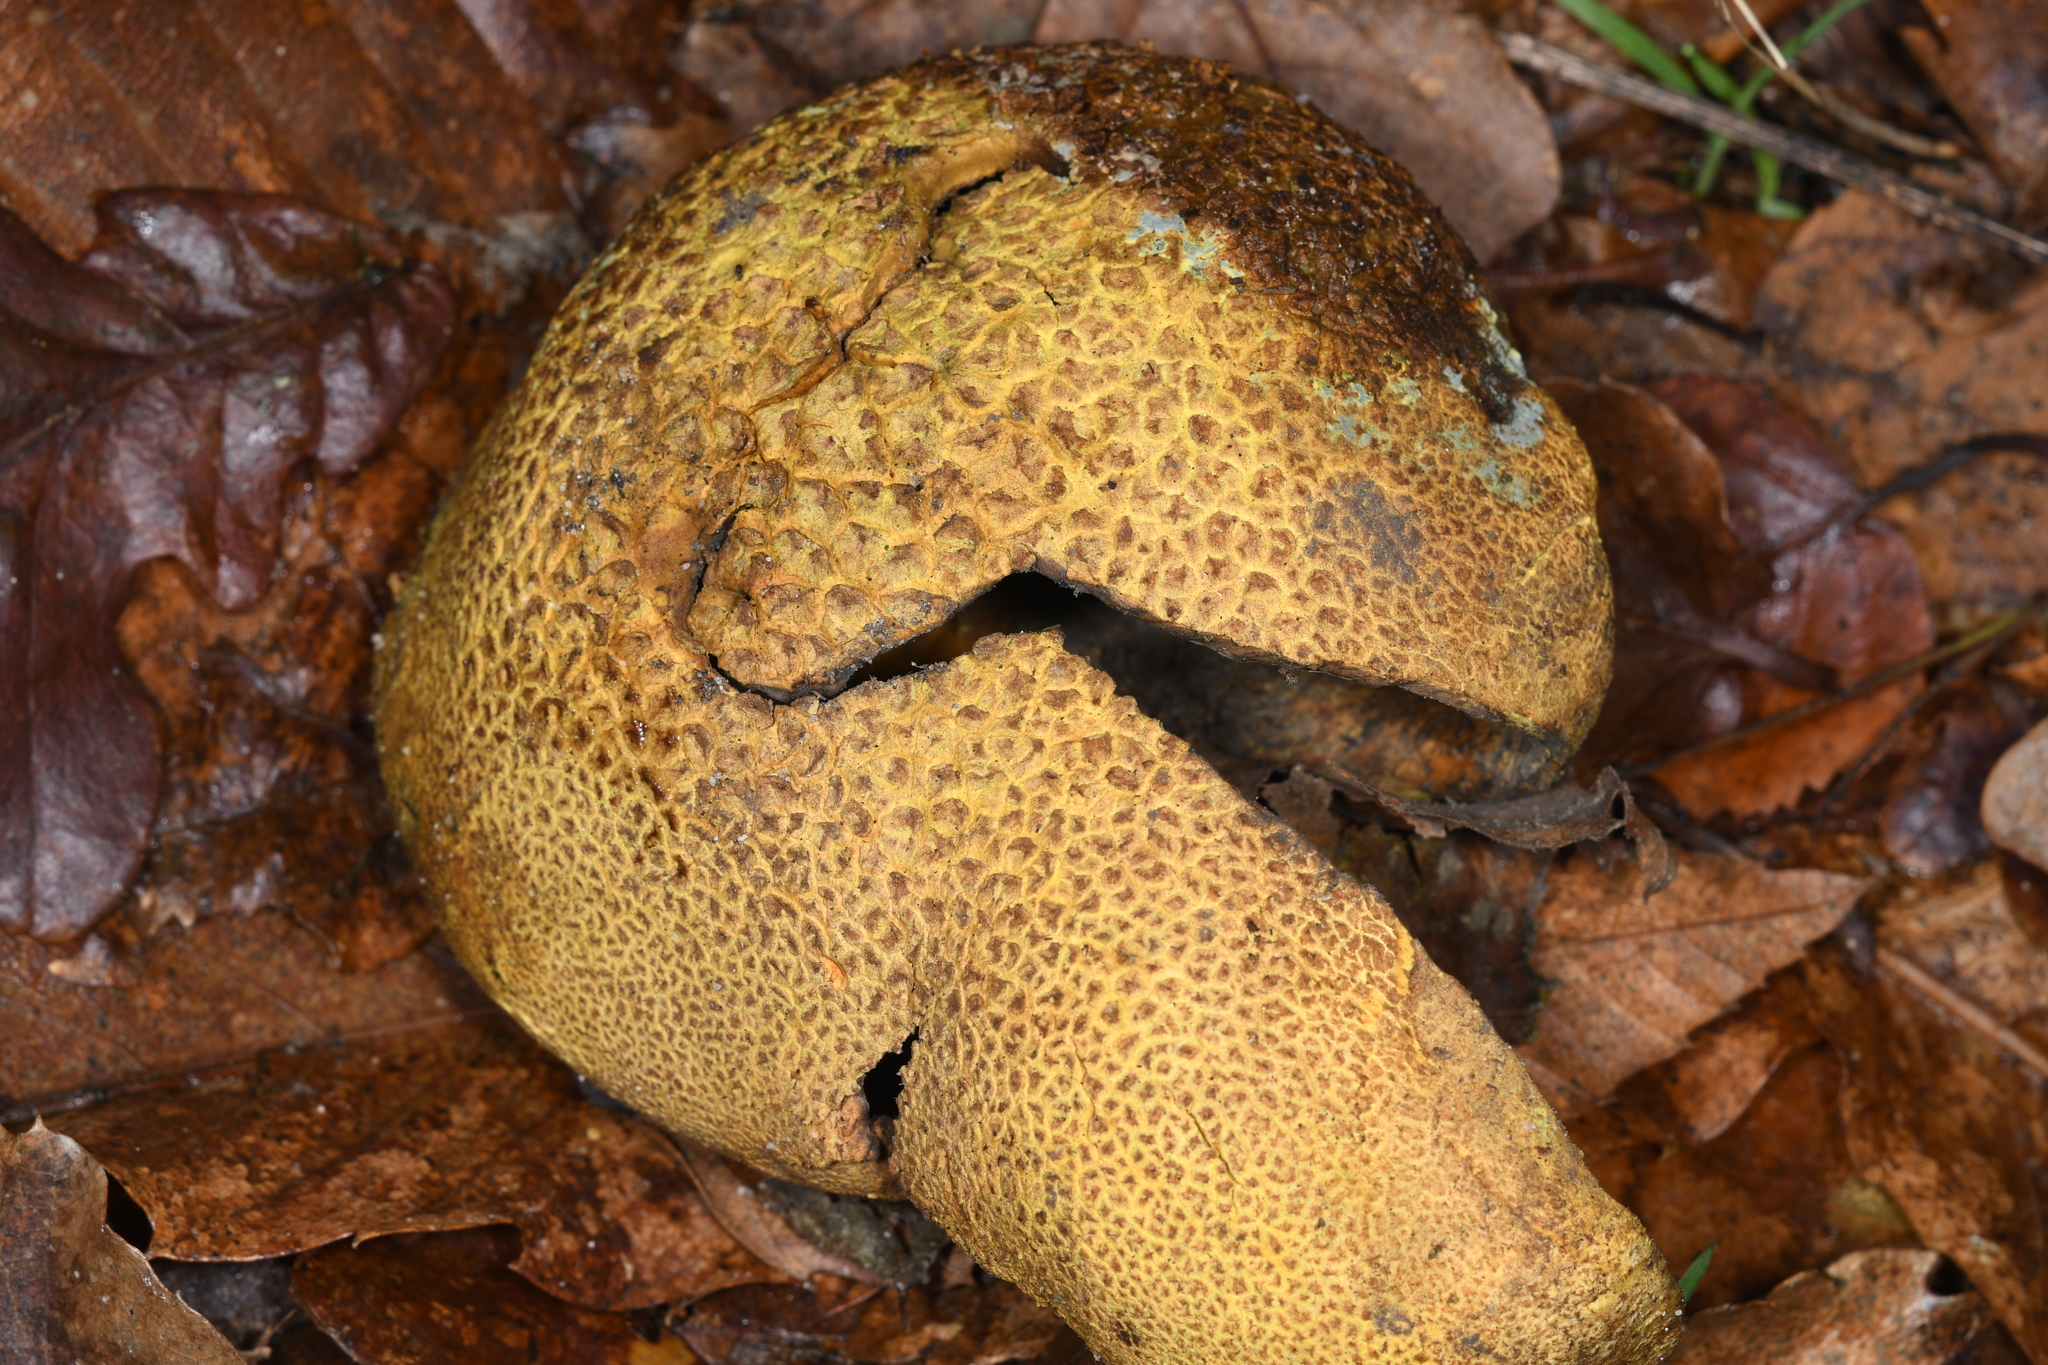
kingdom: Fungi
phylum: Basidiomycota
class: Agaricomycetes
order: Boletales
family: Sclerodermataceae
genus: Scleroderma
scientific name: Scleroderma citrinum
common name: Common earthball
